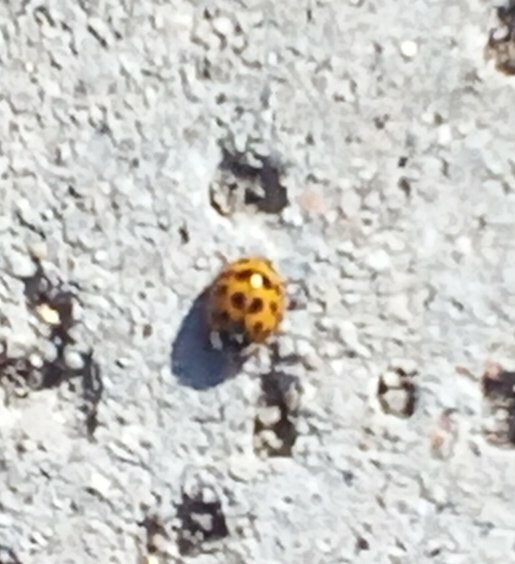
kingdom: Animalia
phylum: Arthropoda
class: Insecta
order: Coleoptera
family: Coccinellidae
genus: Harmonia
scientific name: Harmonia axyridis
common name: Harlequin ladybird
